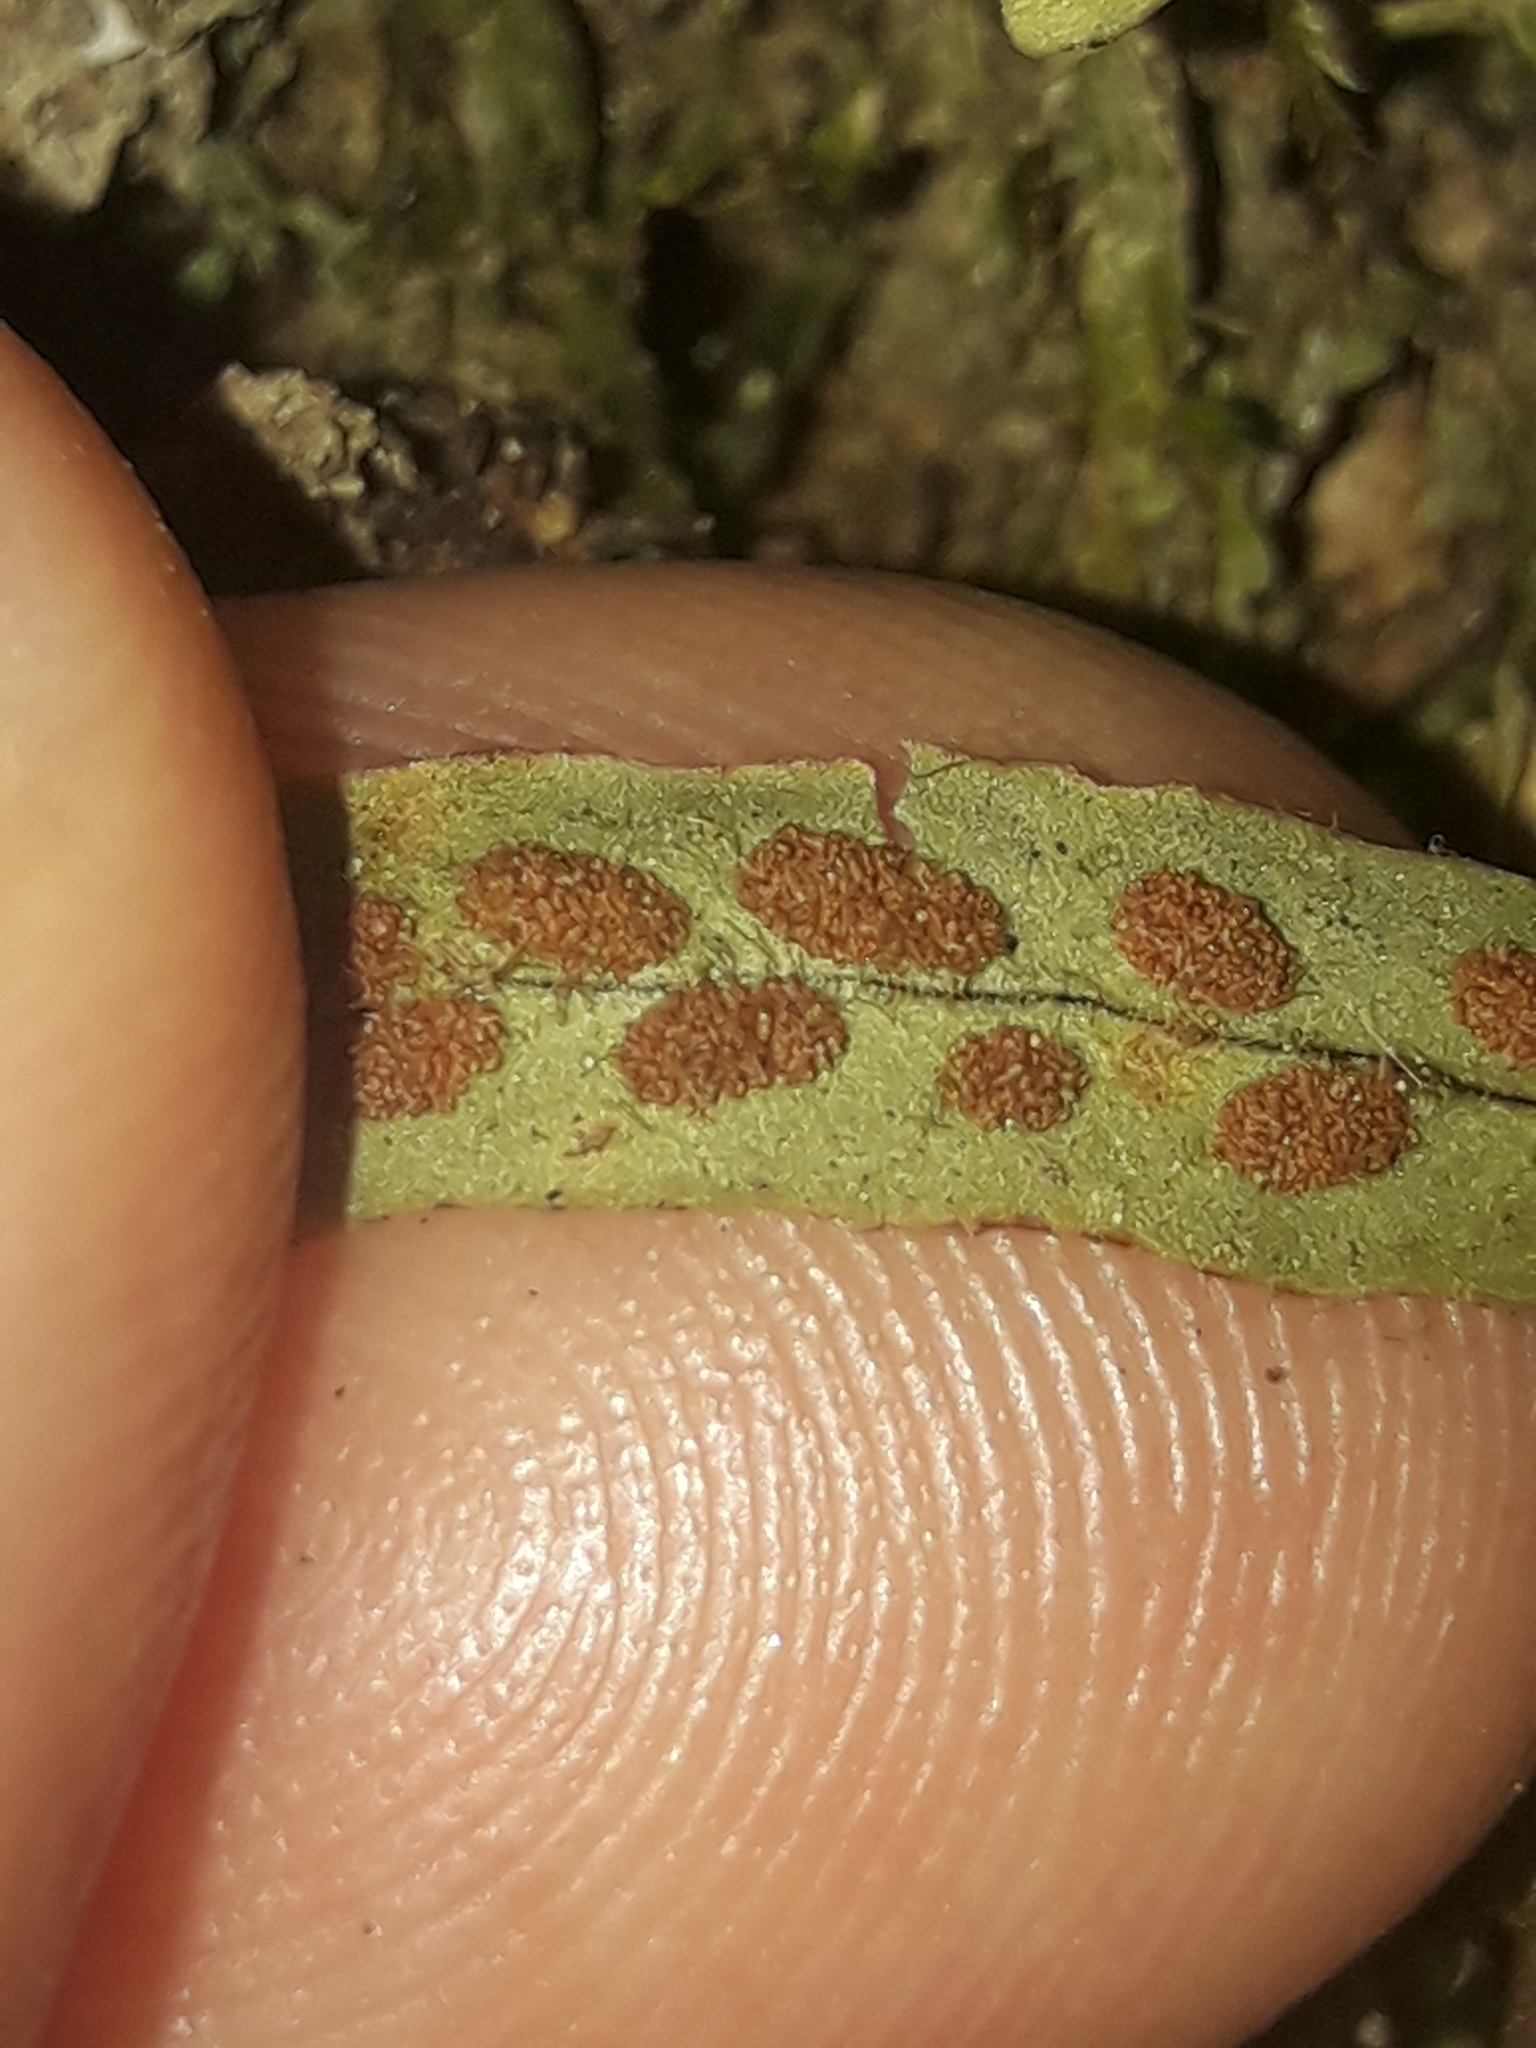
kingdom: Plantae
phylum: Tracheophyta
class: Polypodiopsida
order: Polypodiales
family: Polypodiaceae
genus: Notogrammitis
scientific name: Notogrammitis ciliata
